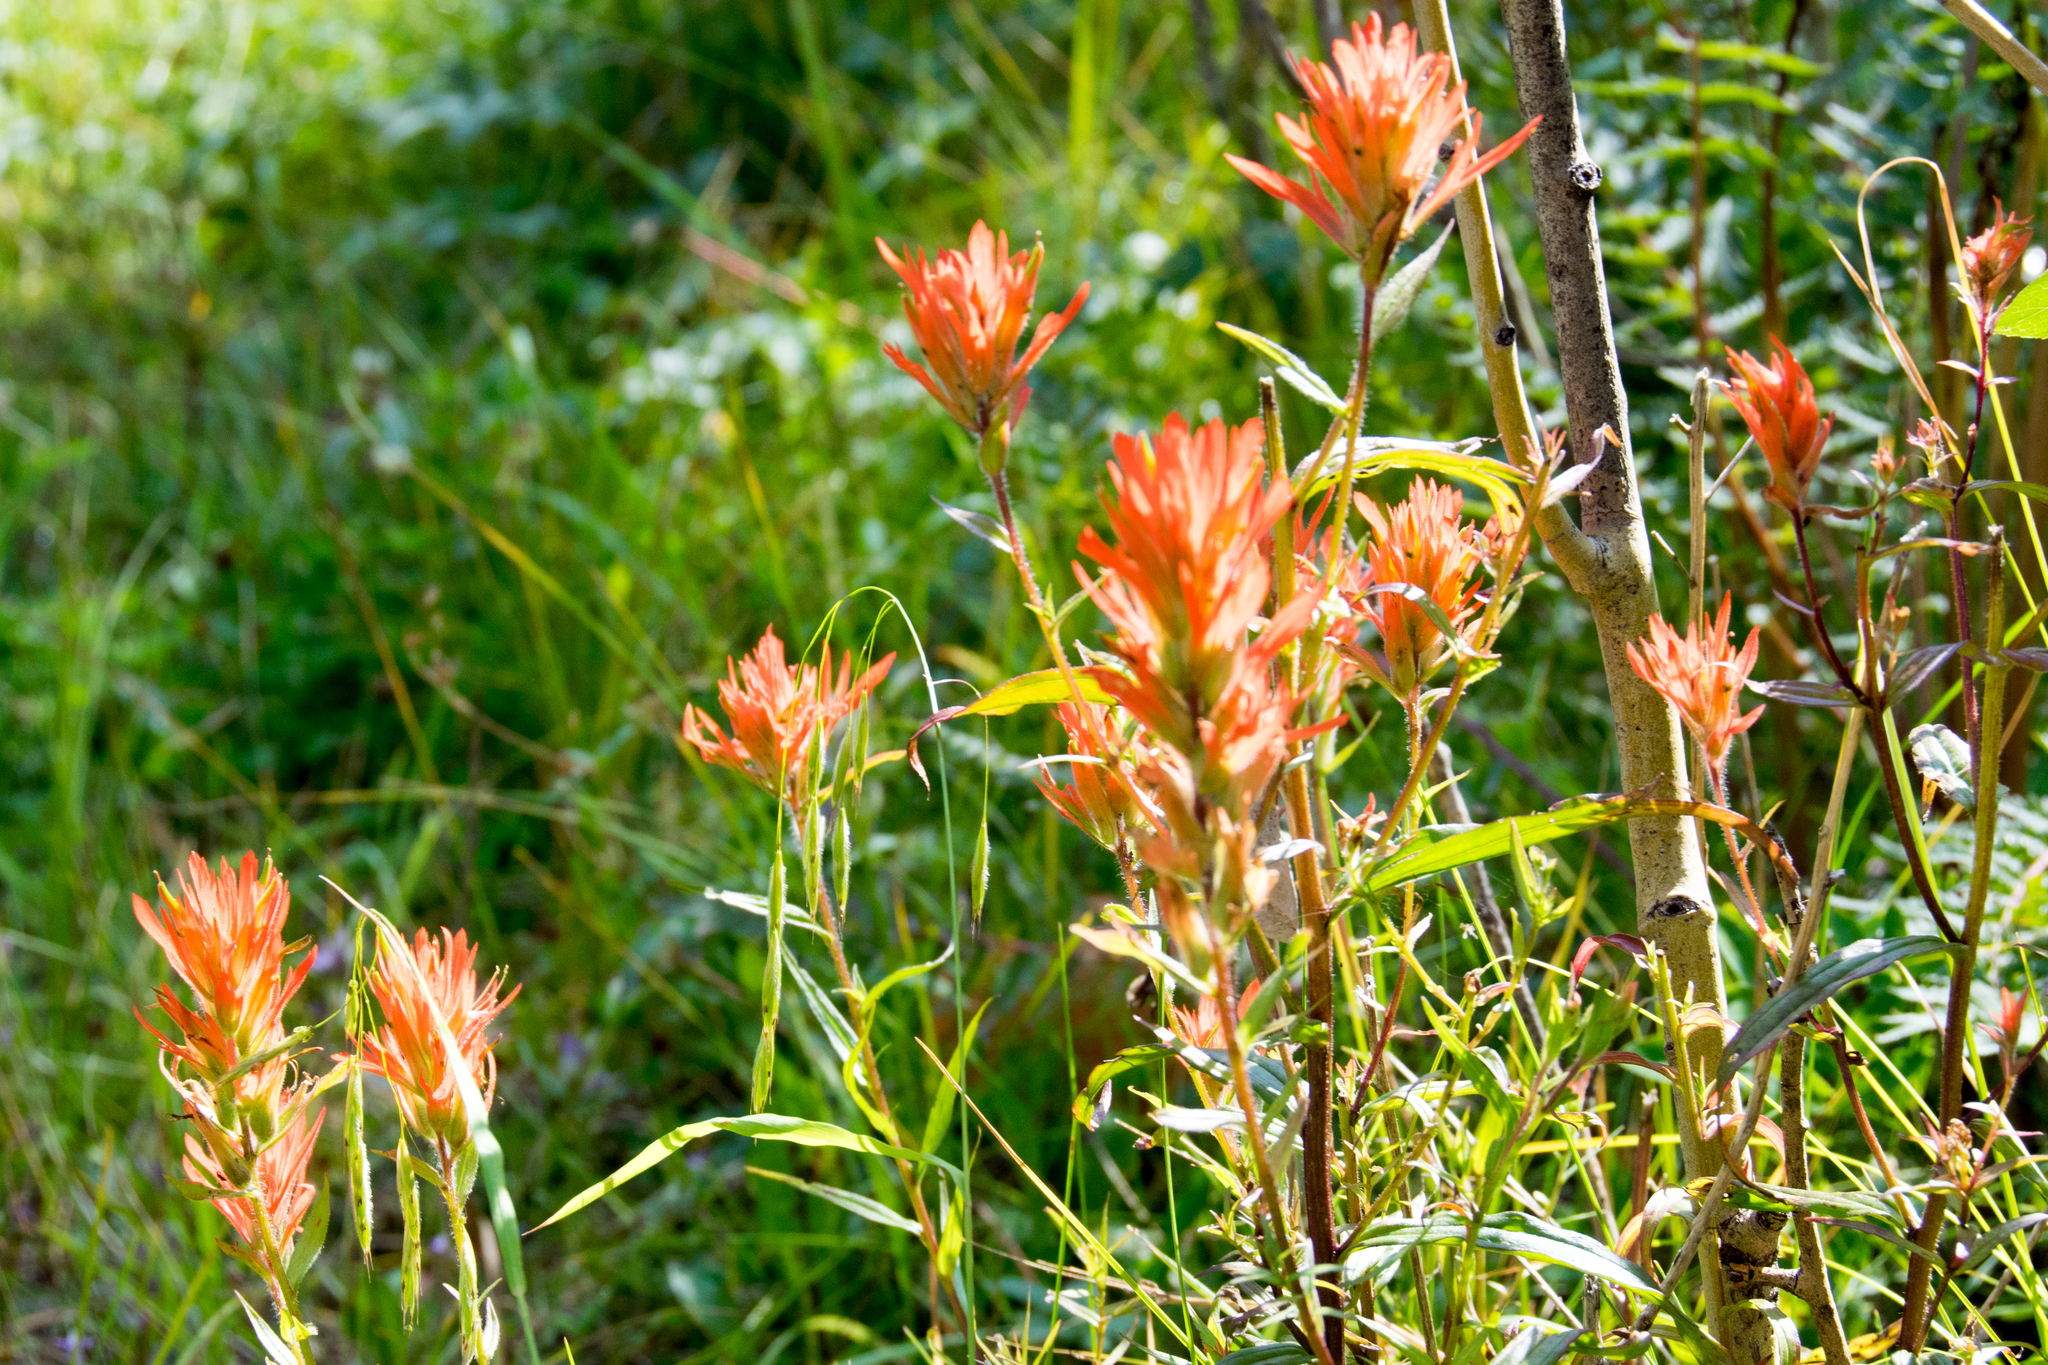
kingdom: Plantae
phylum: Tracheophyta
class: Magnoliopsida
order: Lamiales
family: Orobanchaceae
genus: Castilleja
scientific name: Castilleja miniata
